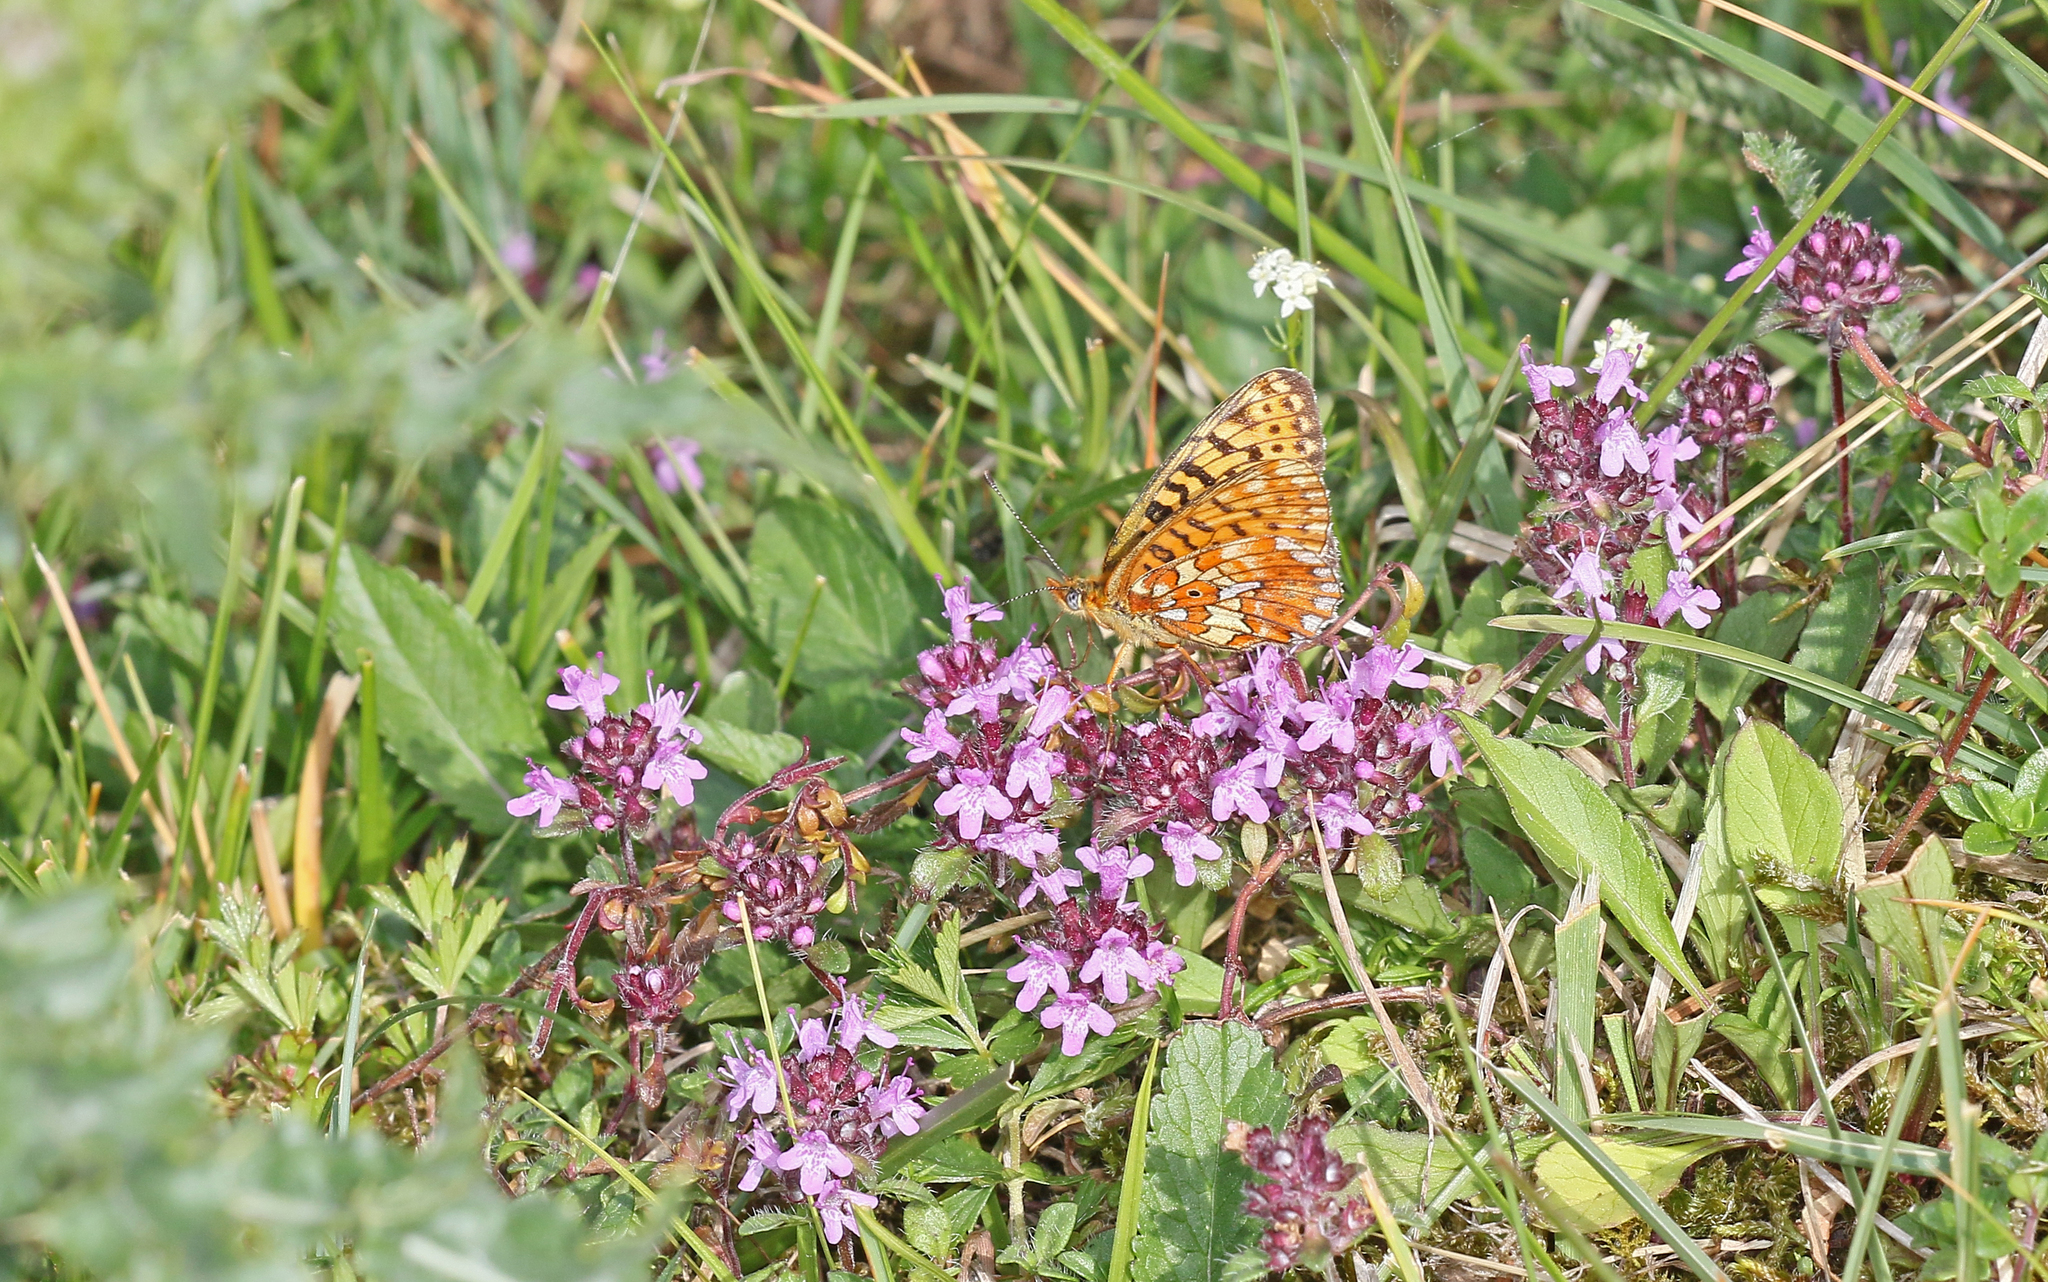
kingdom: Animalia
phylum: Arthropoda
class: Insecta
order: Lepidoptera
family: Nymphalidae
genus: Clossiana
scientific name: Clossiana euphrosyne
